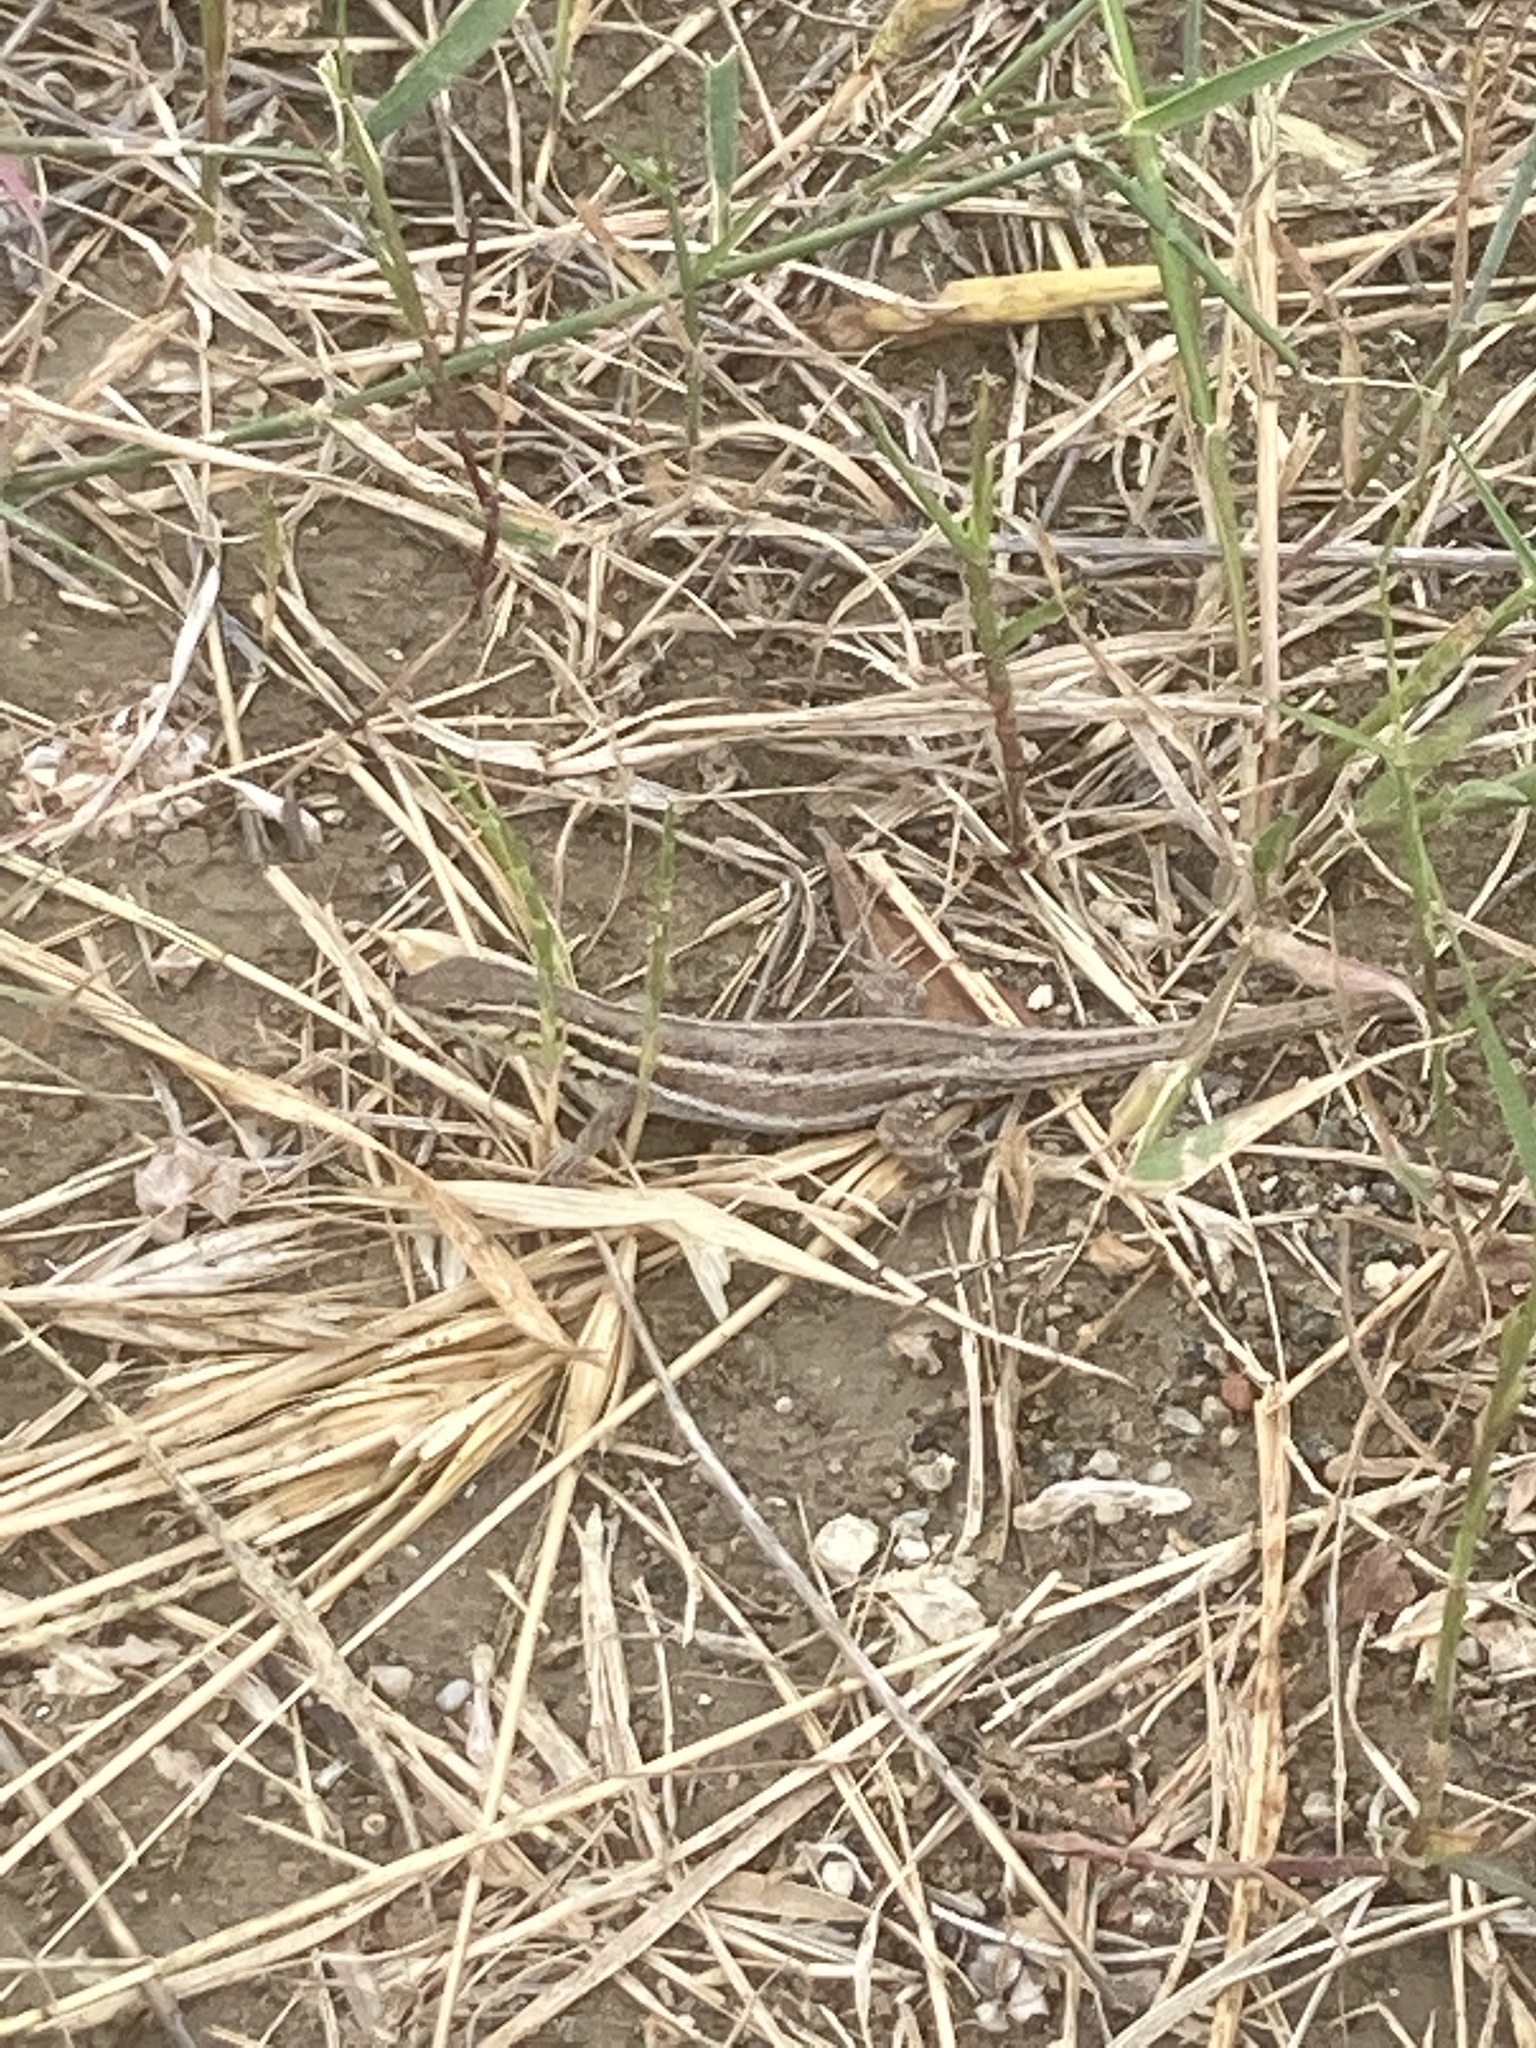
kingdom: Animalia
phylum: Chordata
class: Squamata
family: Lacertidae
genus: Ophisops
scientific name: Ophisops elegans
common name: Snake-eyed lizard
